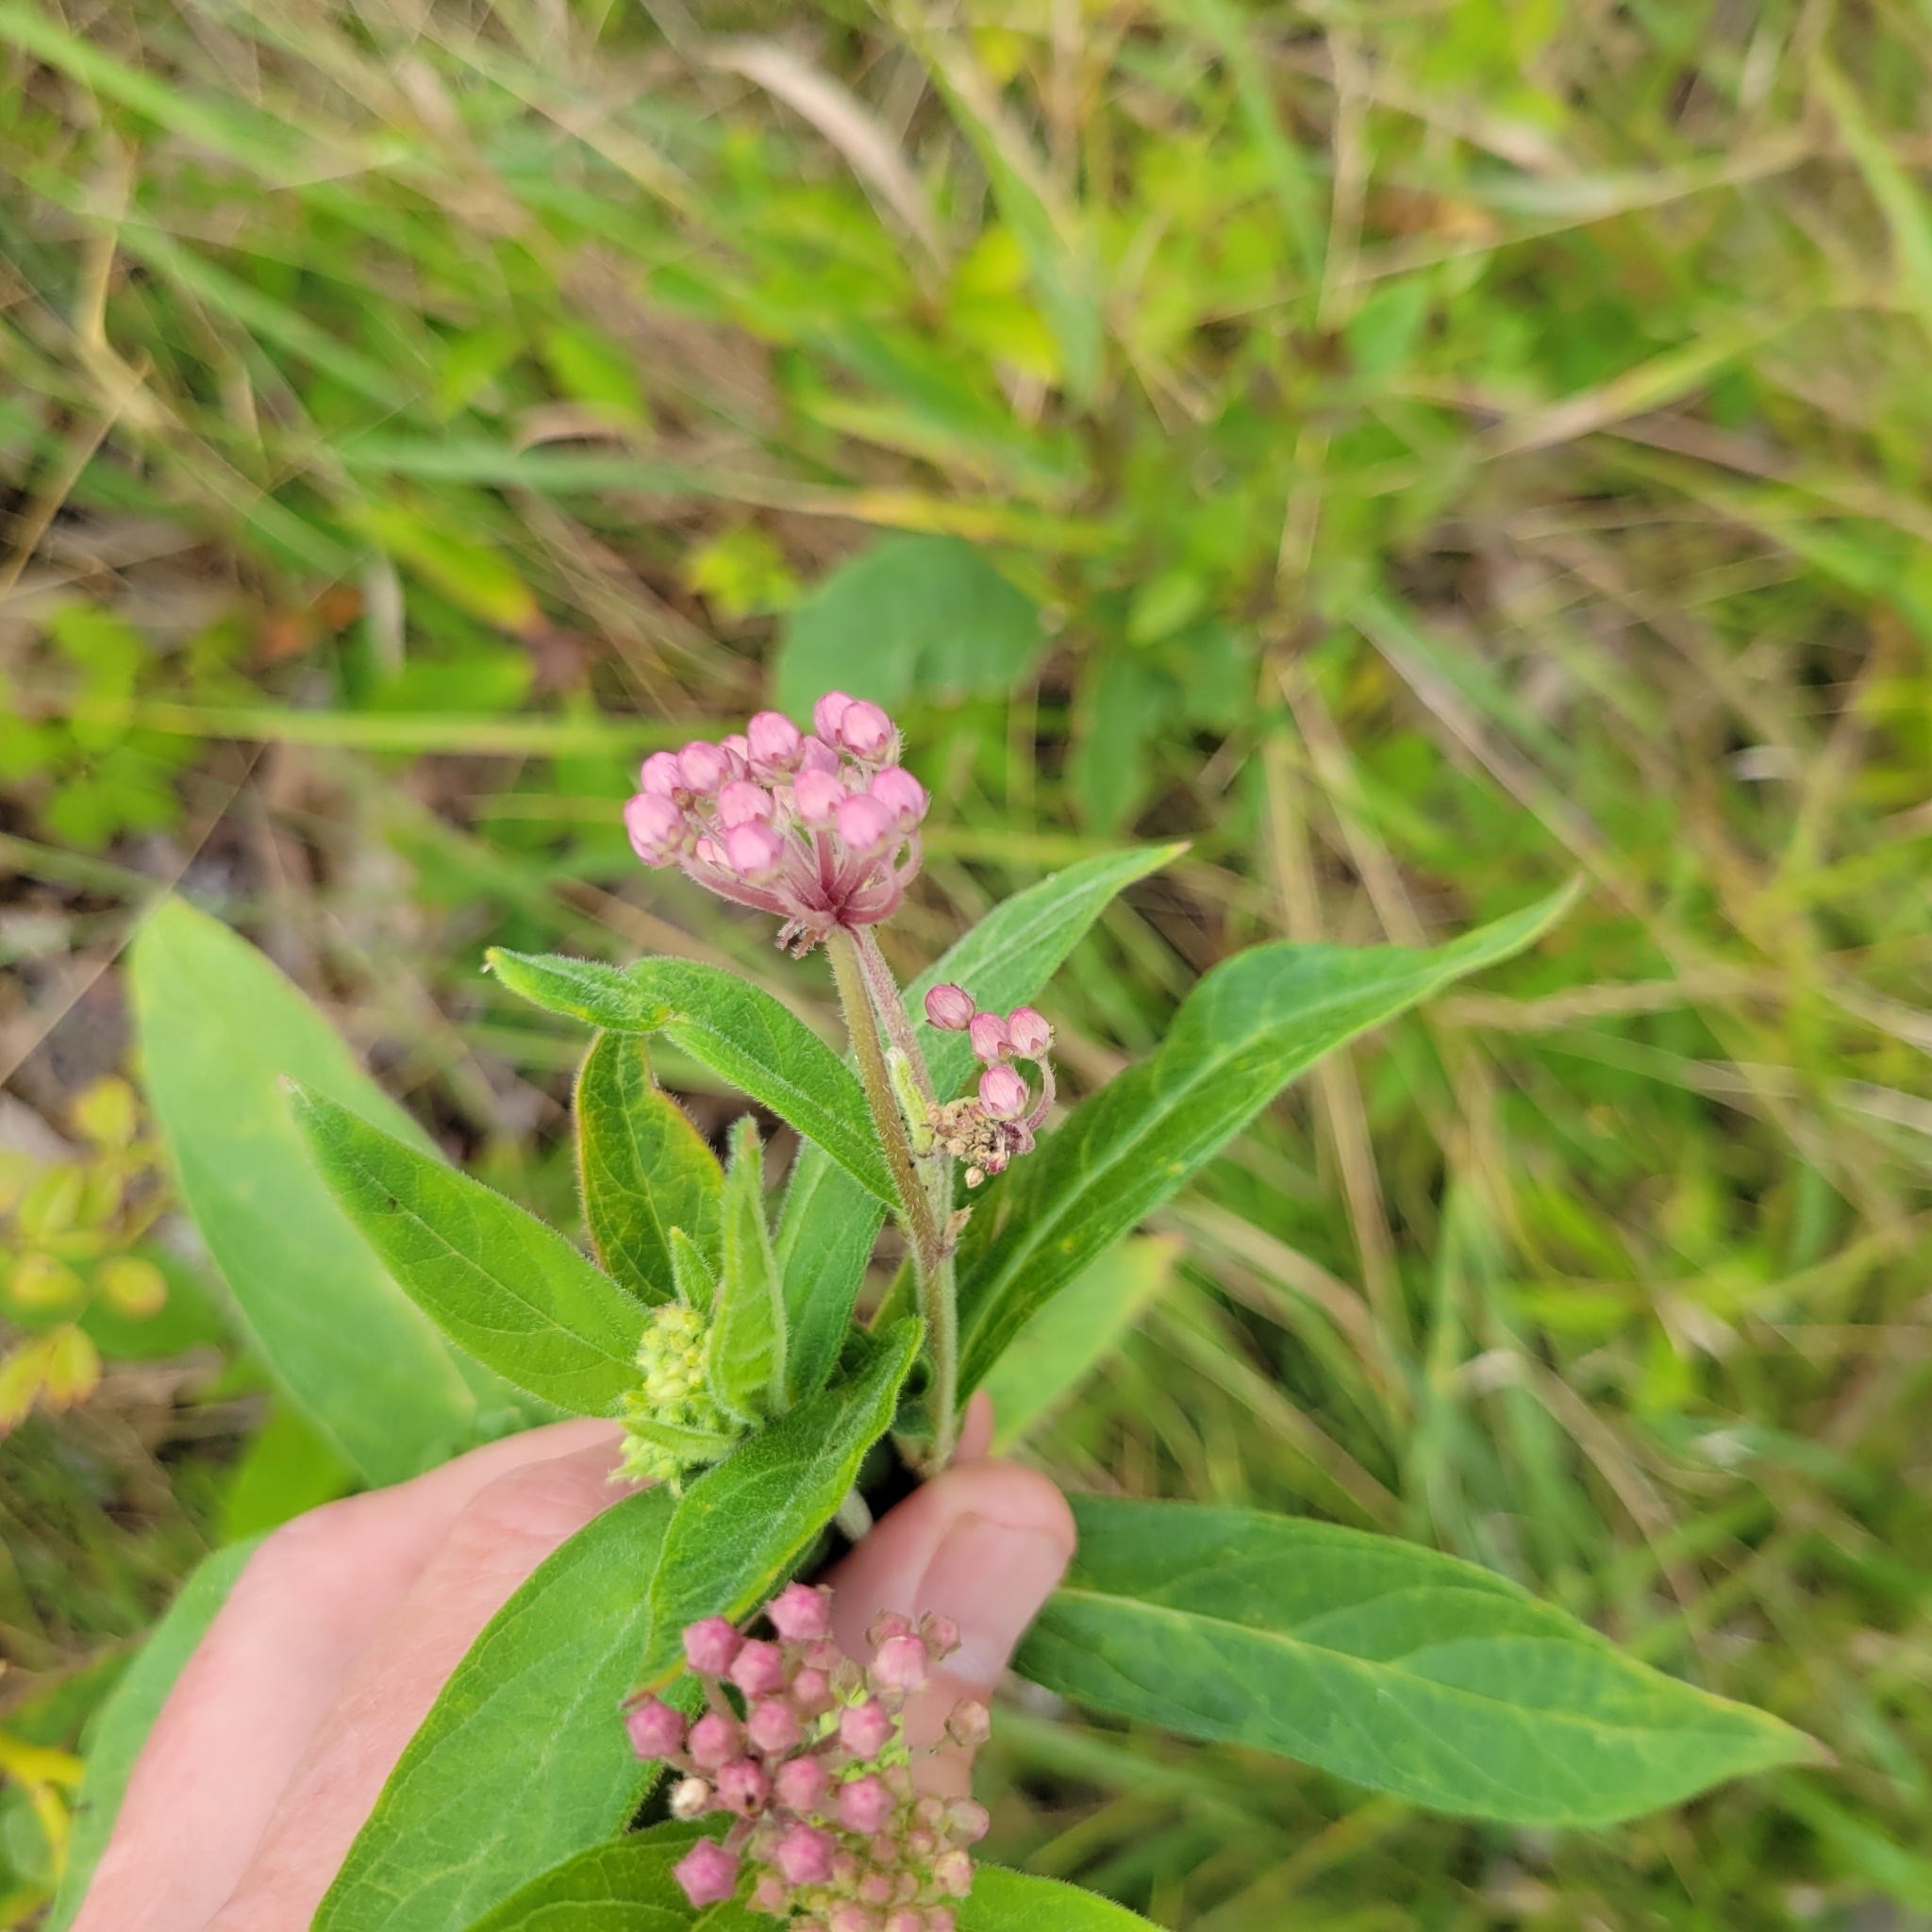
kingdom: Plantae
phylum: Tracheophyta
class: Magnoliopsida
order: Gentianales
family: Apocynaceae
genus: Asclepias
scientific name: Asclepias incarnata
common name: Swamp milkweed
